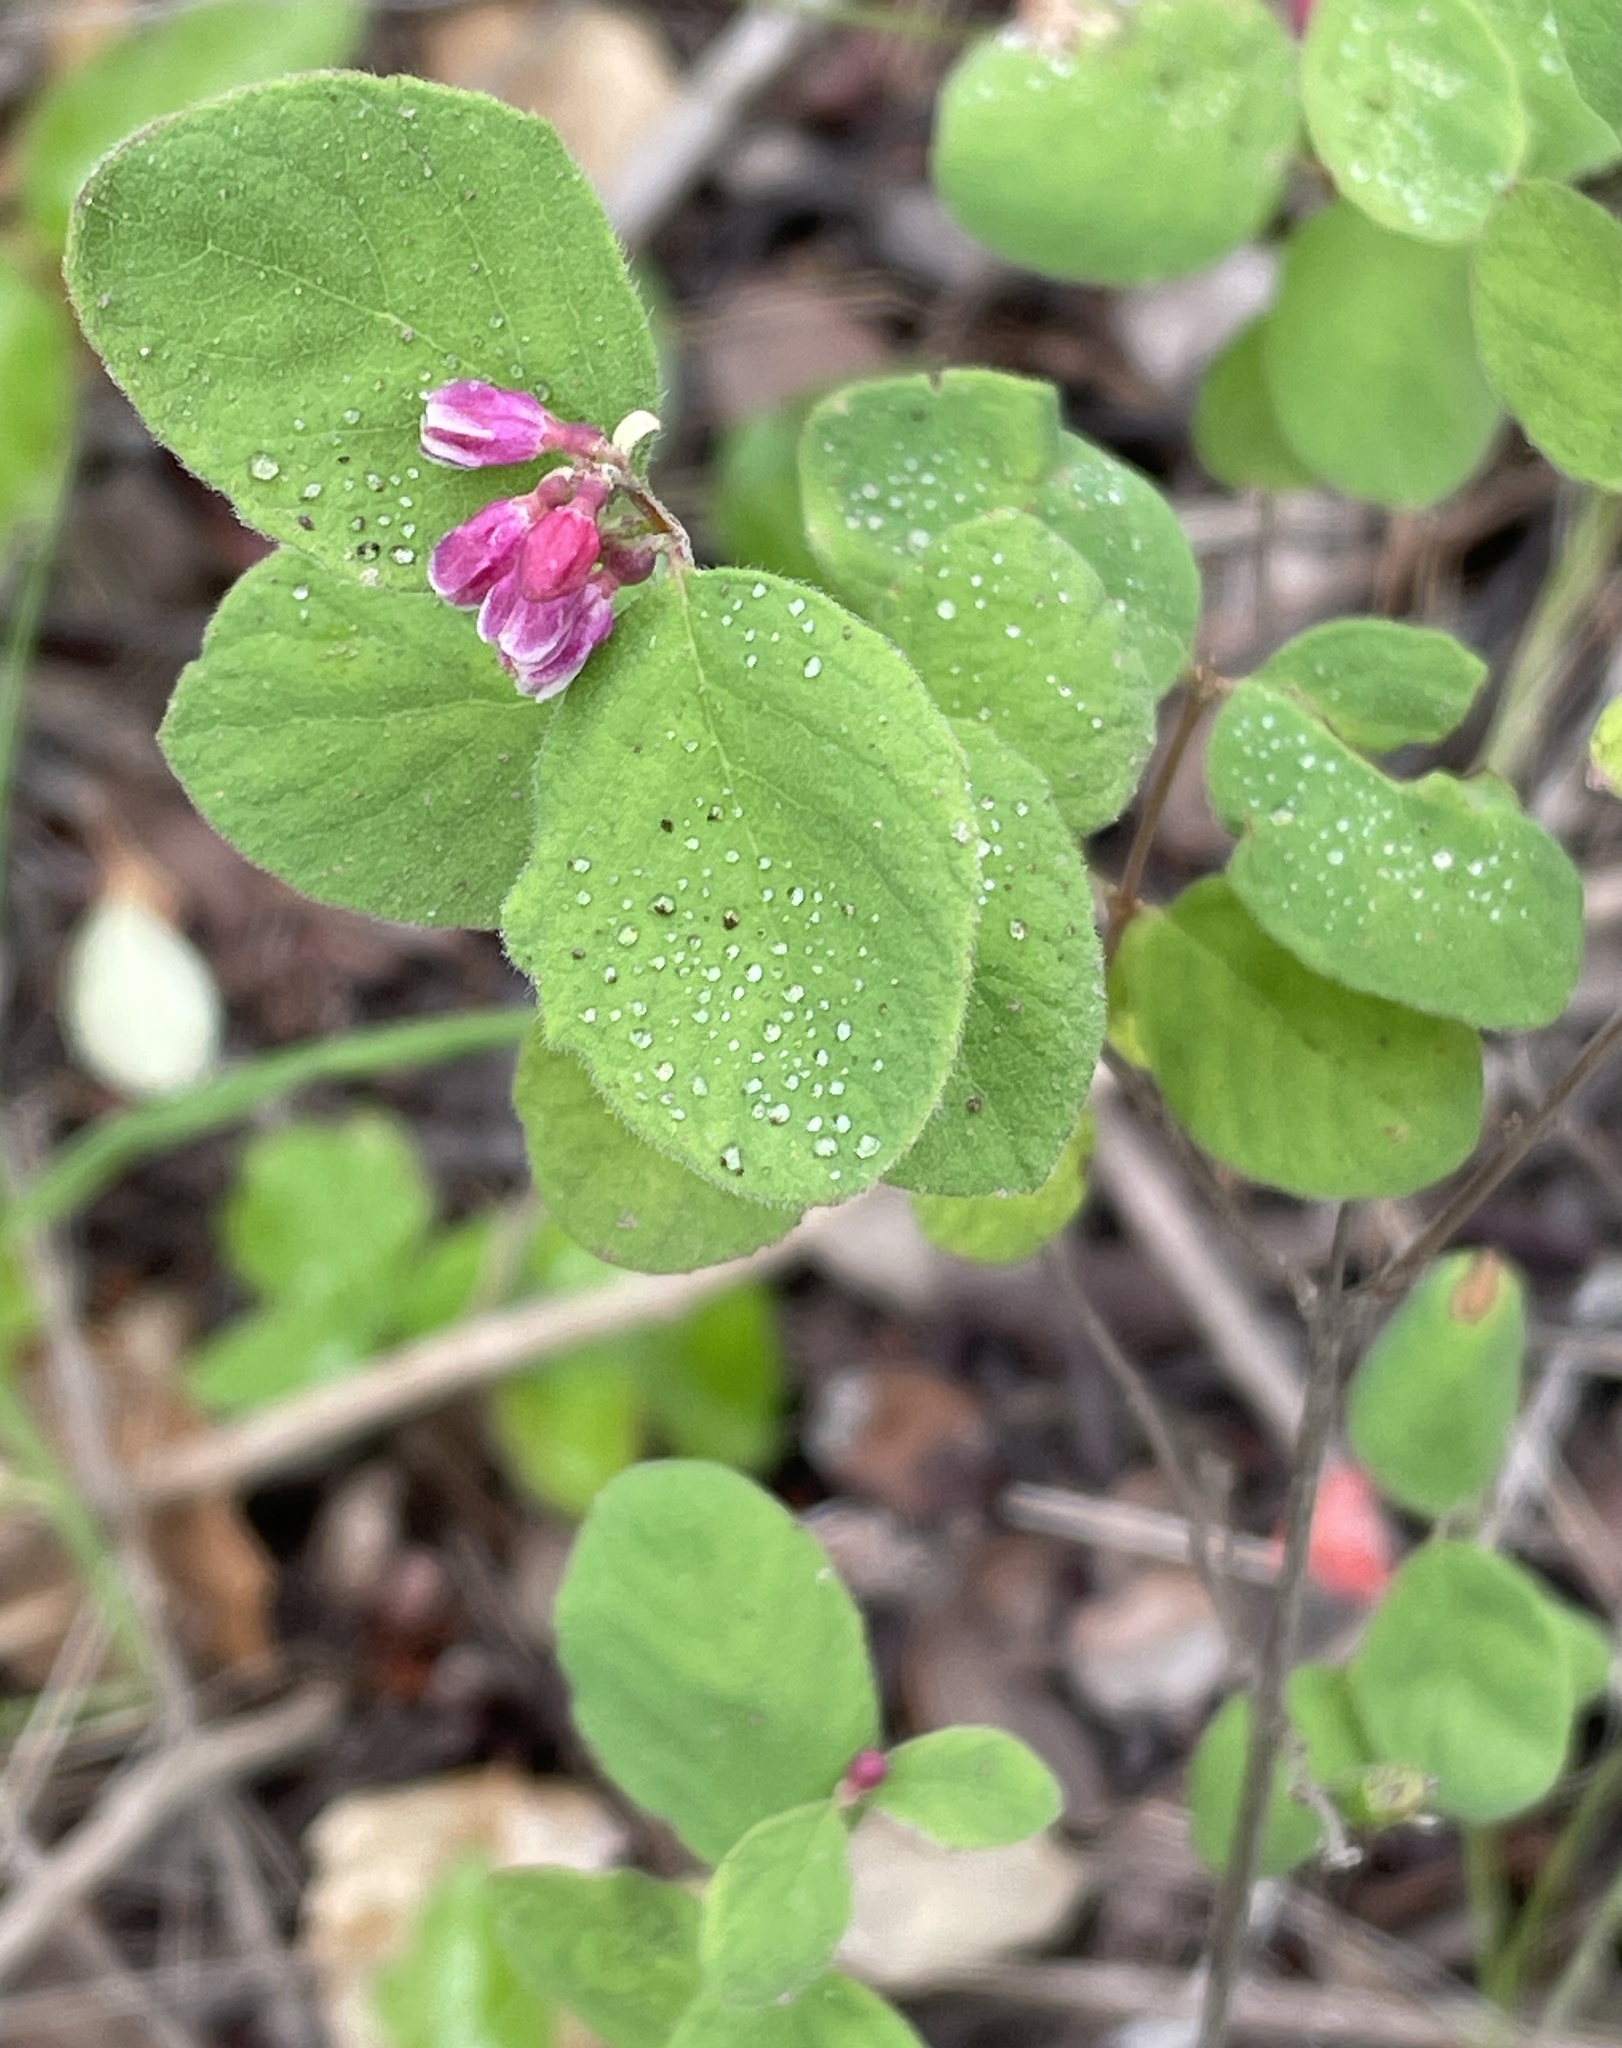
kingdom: Plantae
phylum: Tracheophyta
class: Magnoliopsida
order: Dipsacales
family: Caprifoliaceae
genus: Symphoricarpos
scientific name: Symphoricarpos mollis
